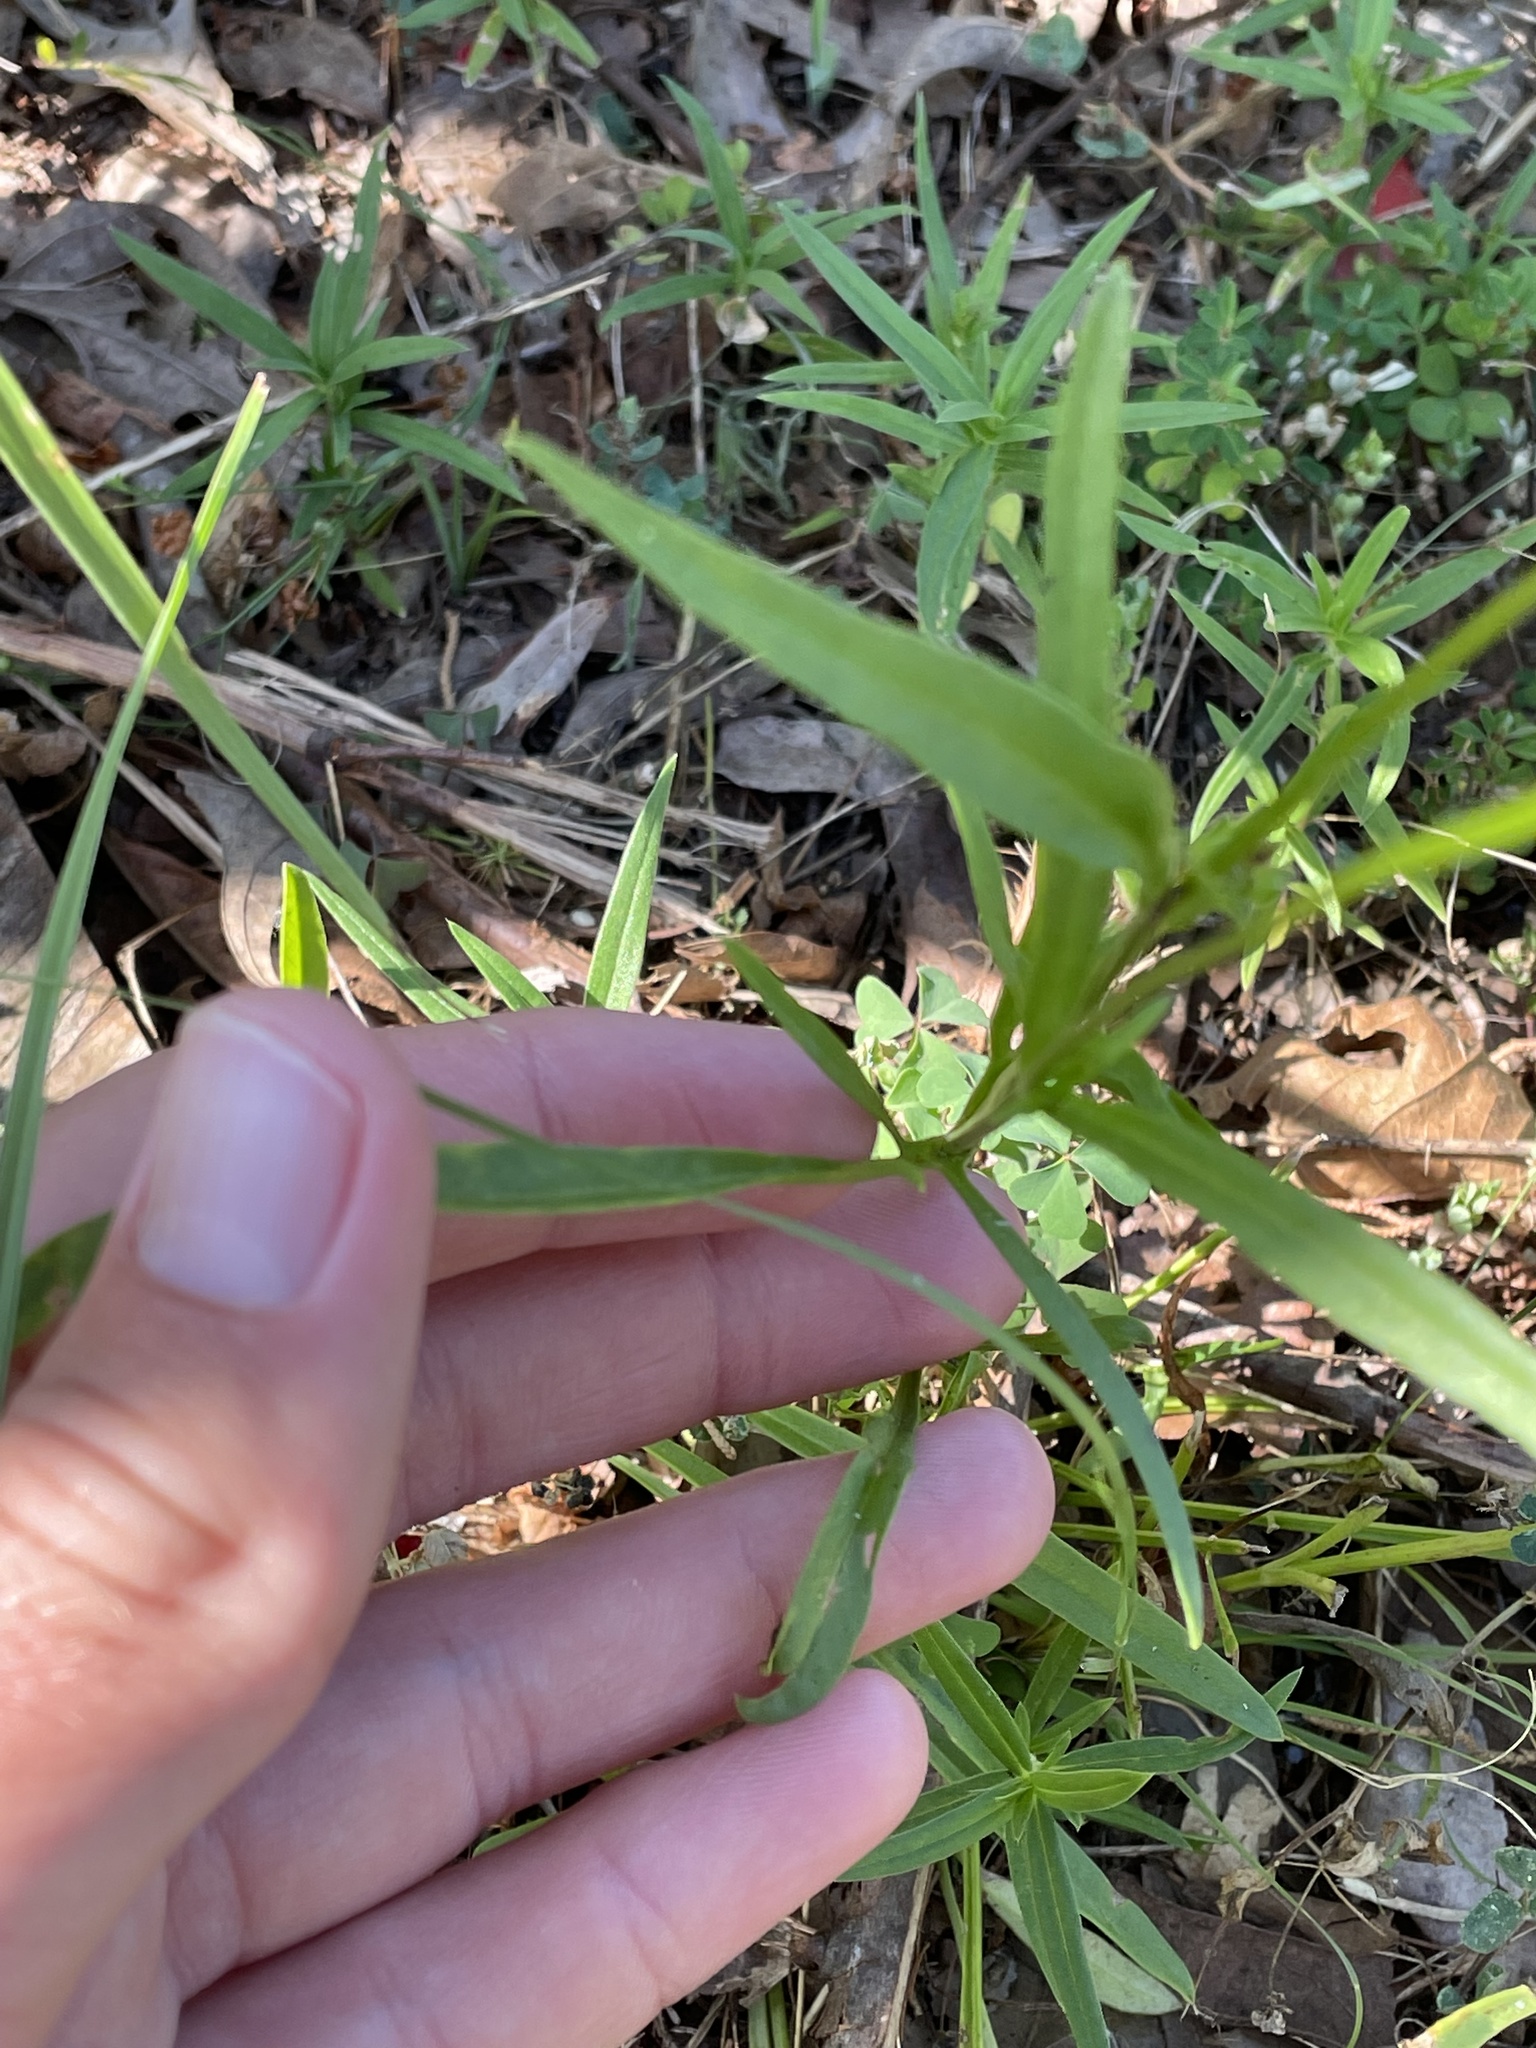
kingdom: Plantae
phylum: Tracheophyta
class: Magnoliopsida
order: Asterales
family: Asteraceae
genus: Coreopsis
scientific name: Coreopsis lanceolata
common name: Garden coreopsis
